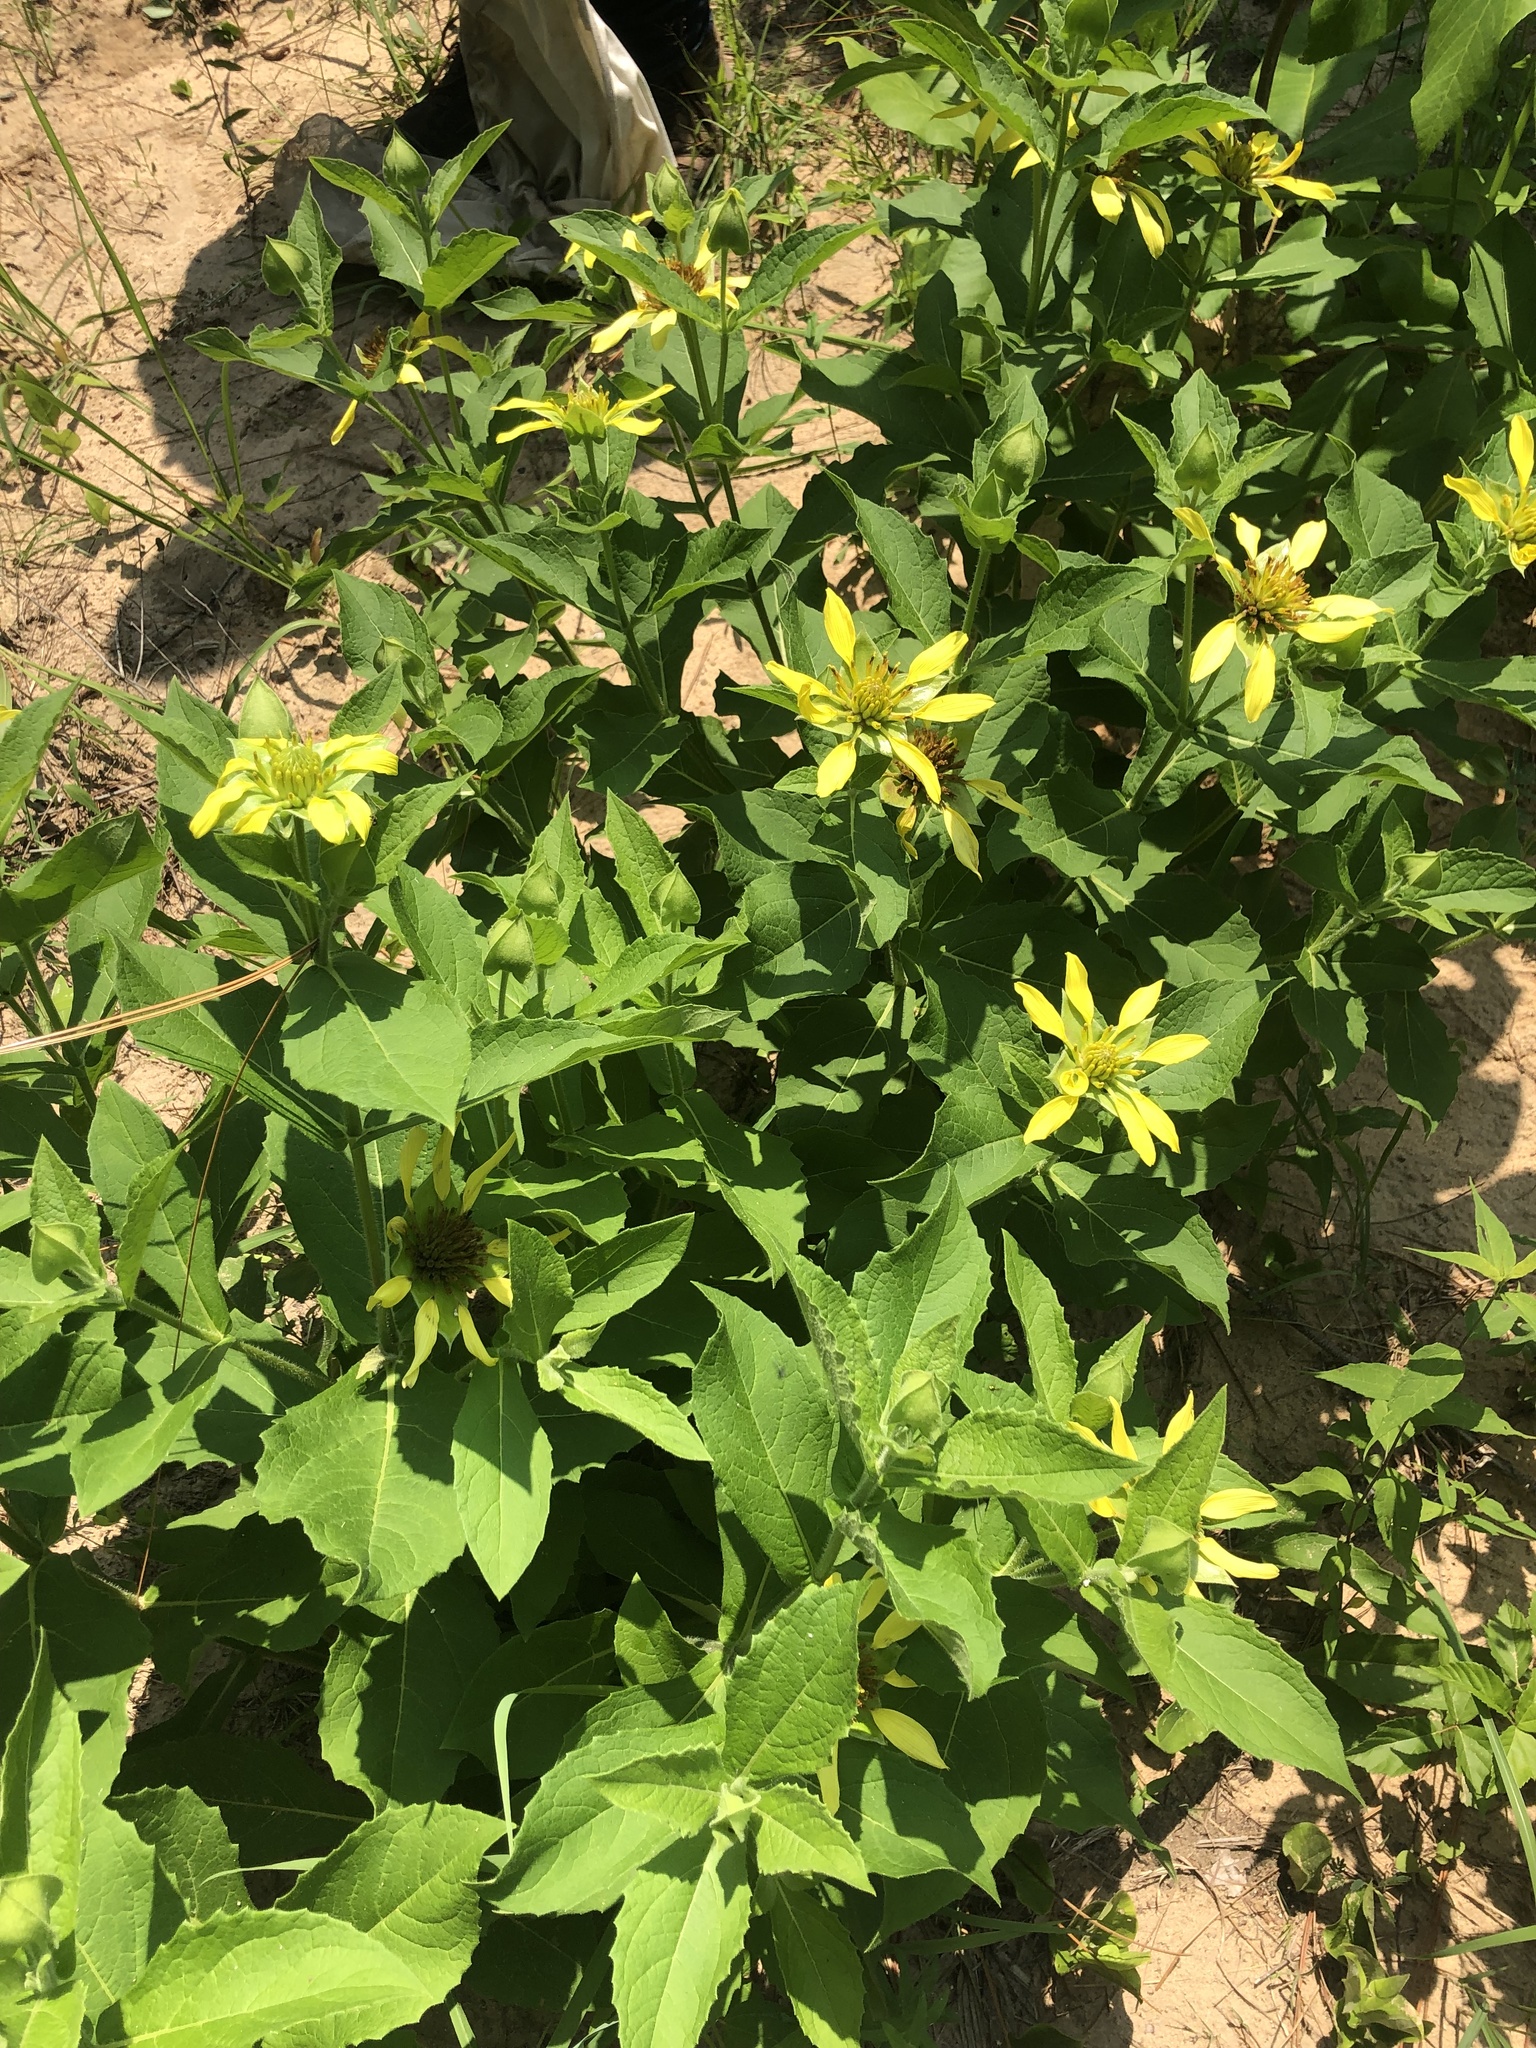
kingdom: Plantae
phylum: Tracheophyta
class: Magnoliopsida
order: Asterales
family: Asteraceae
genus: Tetragonotheca
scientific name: Tetragonotheca helianthoides
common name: Pineland-ginseng
